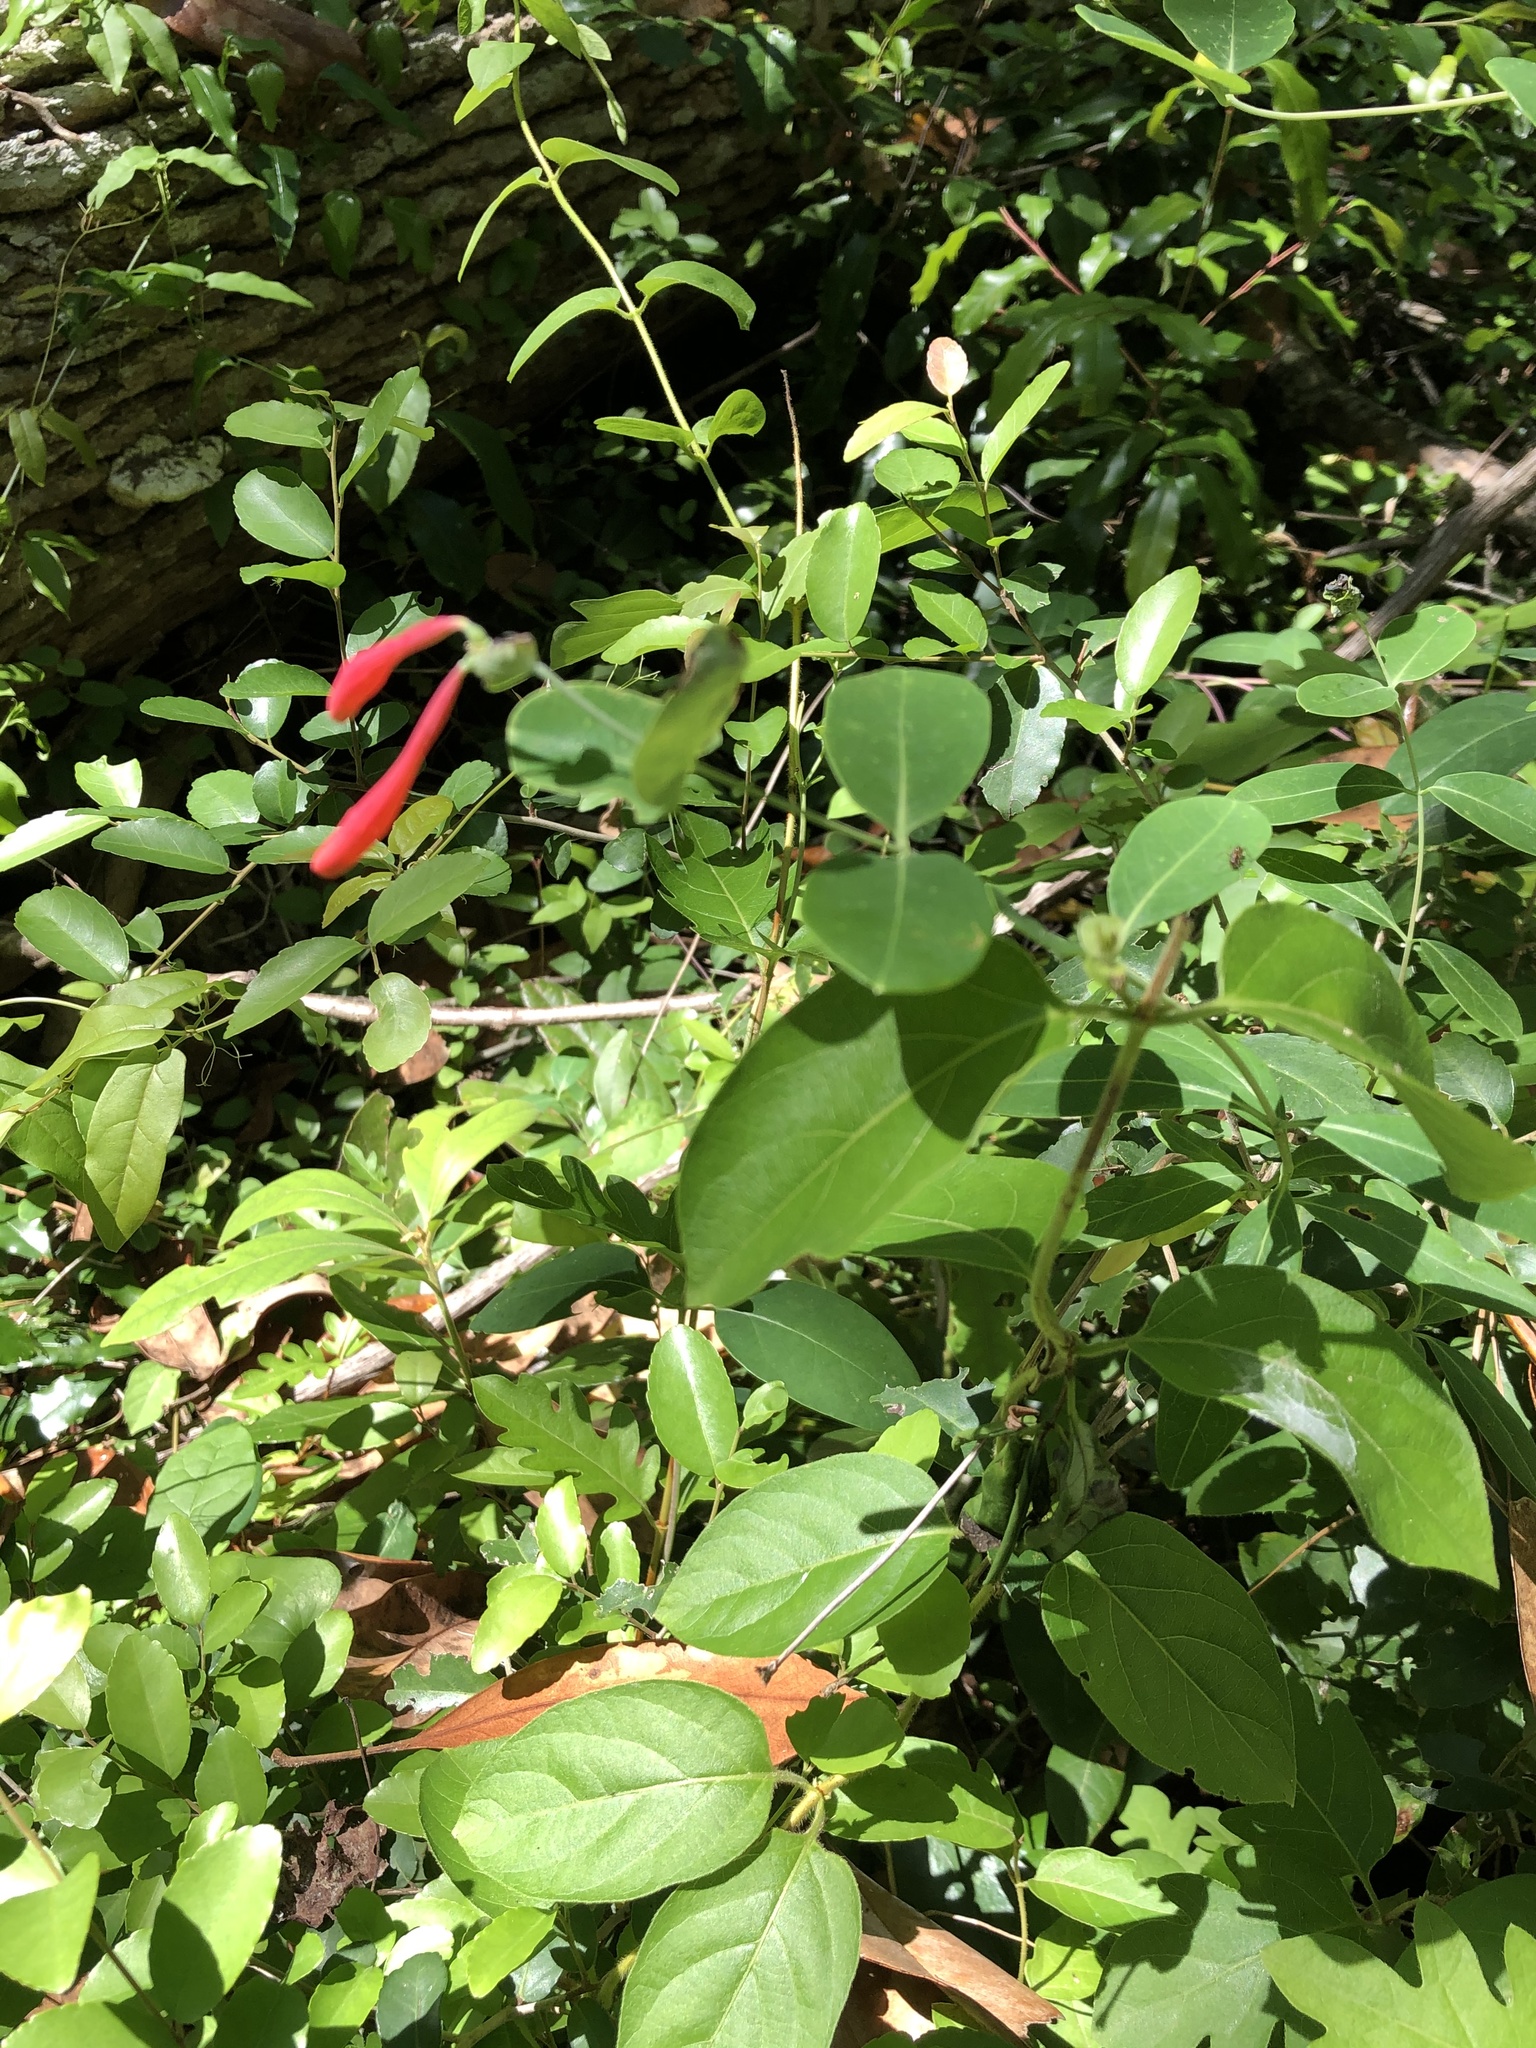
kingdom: Plantae
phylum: Tracheophyta
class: Magnoliopsida
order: Dipsacales
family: Caprifoliaceae
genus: Lonicera
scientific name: Lonicera sempervirens
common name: Coral honeysuckle
